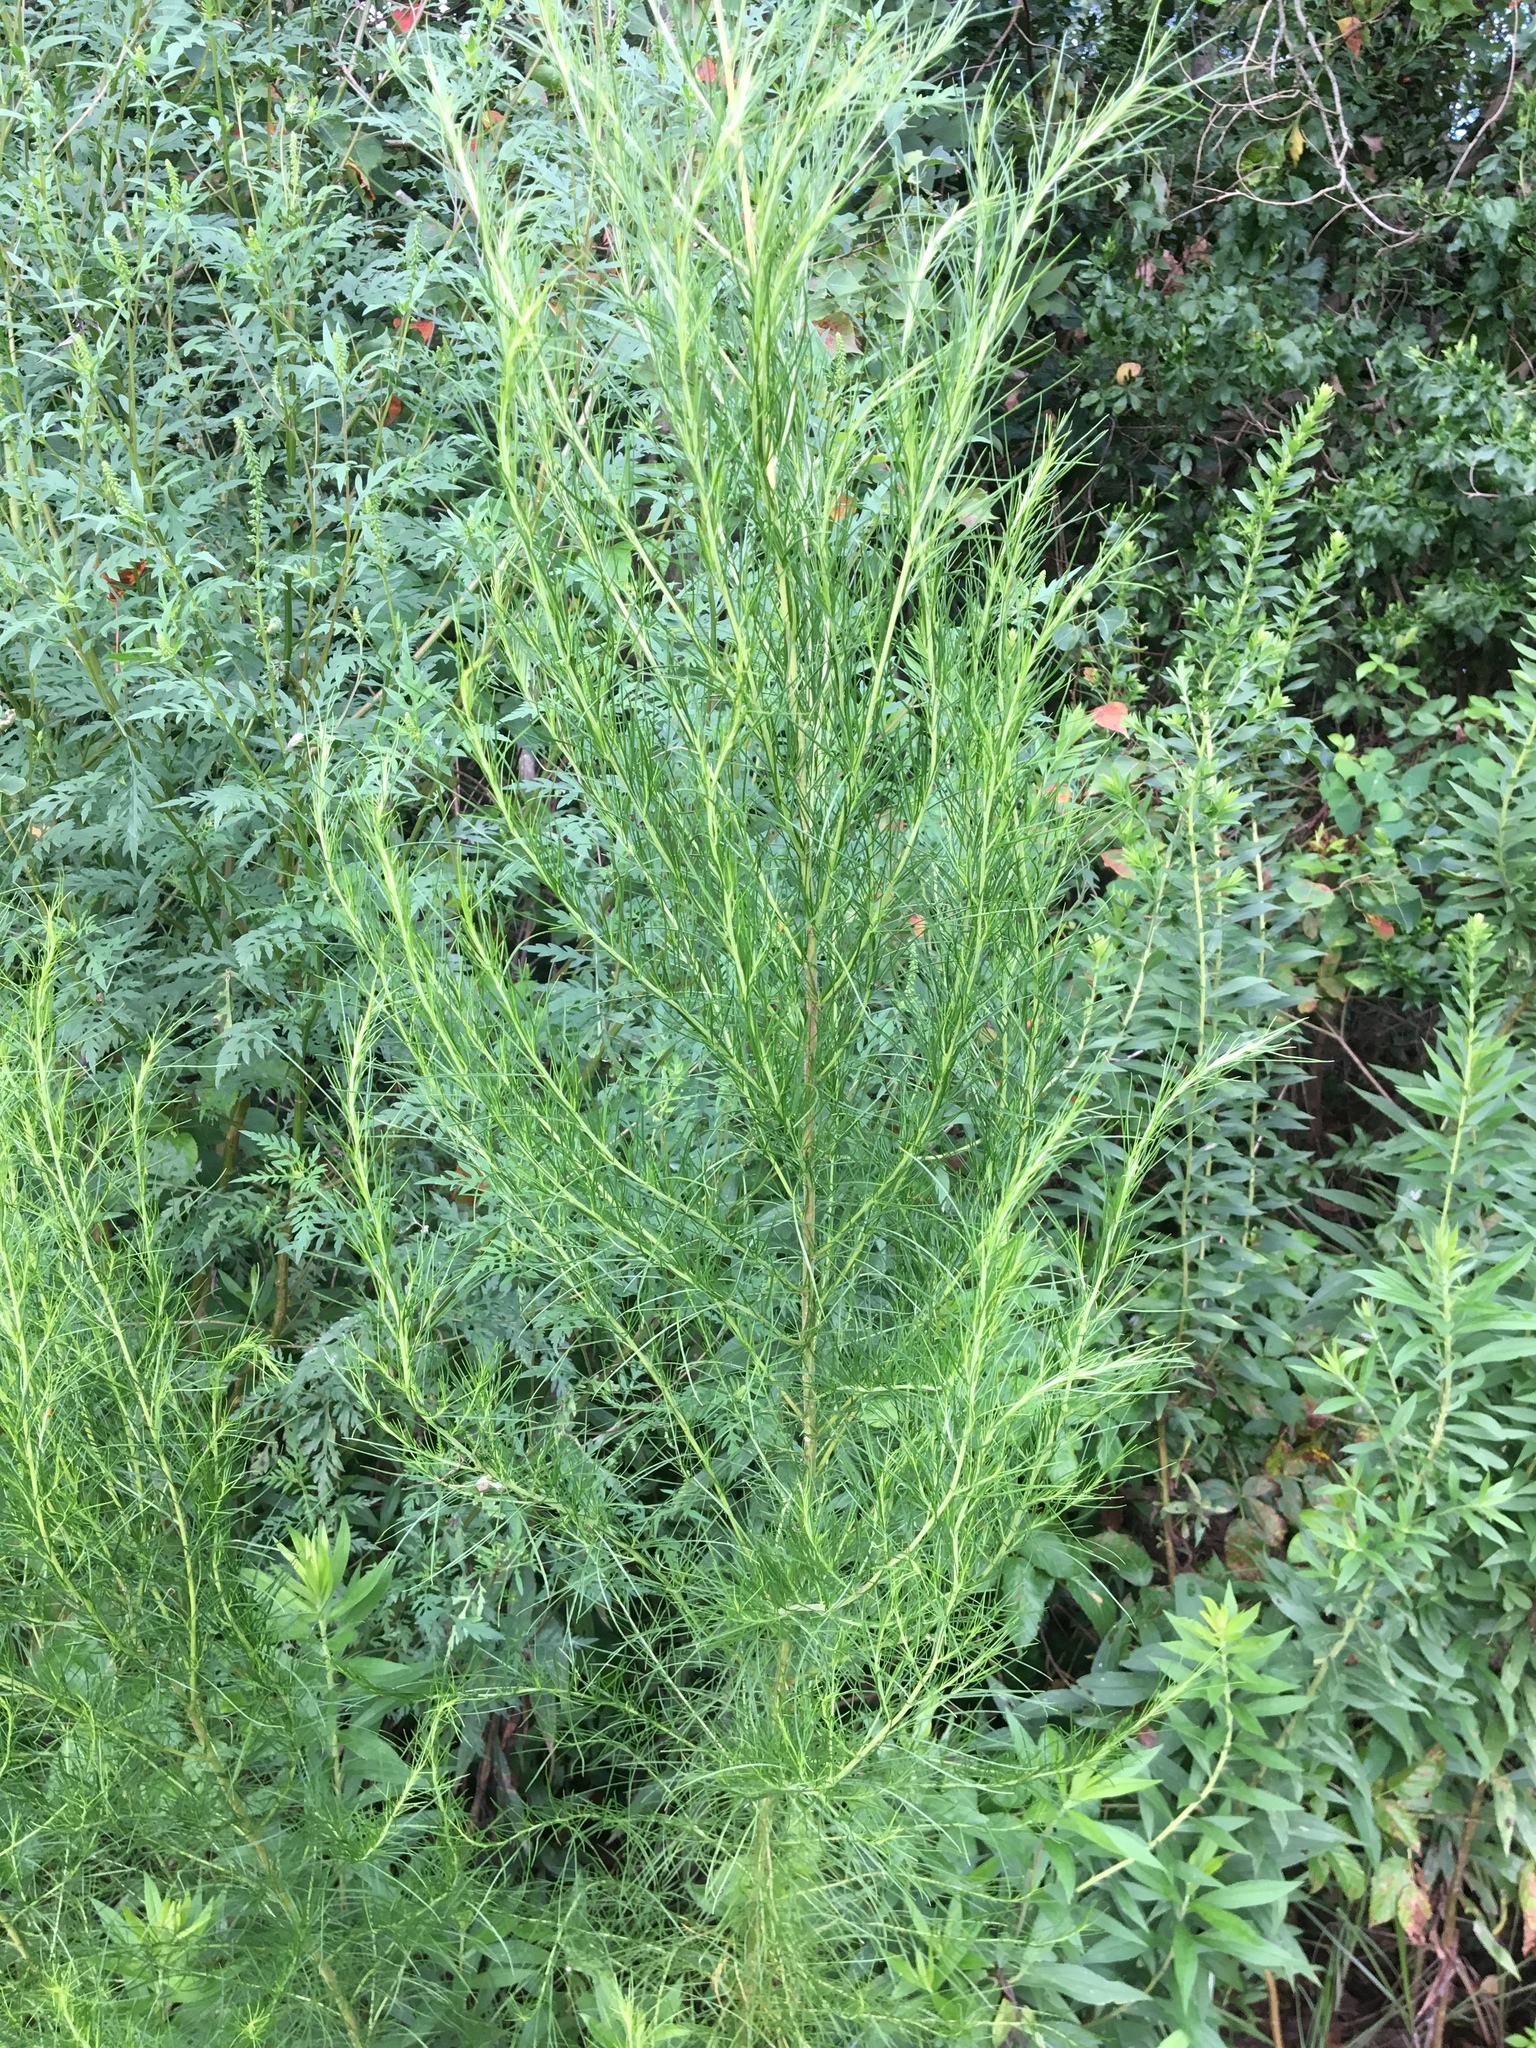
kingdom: Plantae
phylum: Tracheophyta
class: Magnoliopsida
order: Asterales
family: Asteraceae
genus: Eupatorium
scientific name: Eupatorium capillifolium
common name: Dog-fennel
